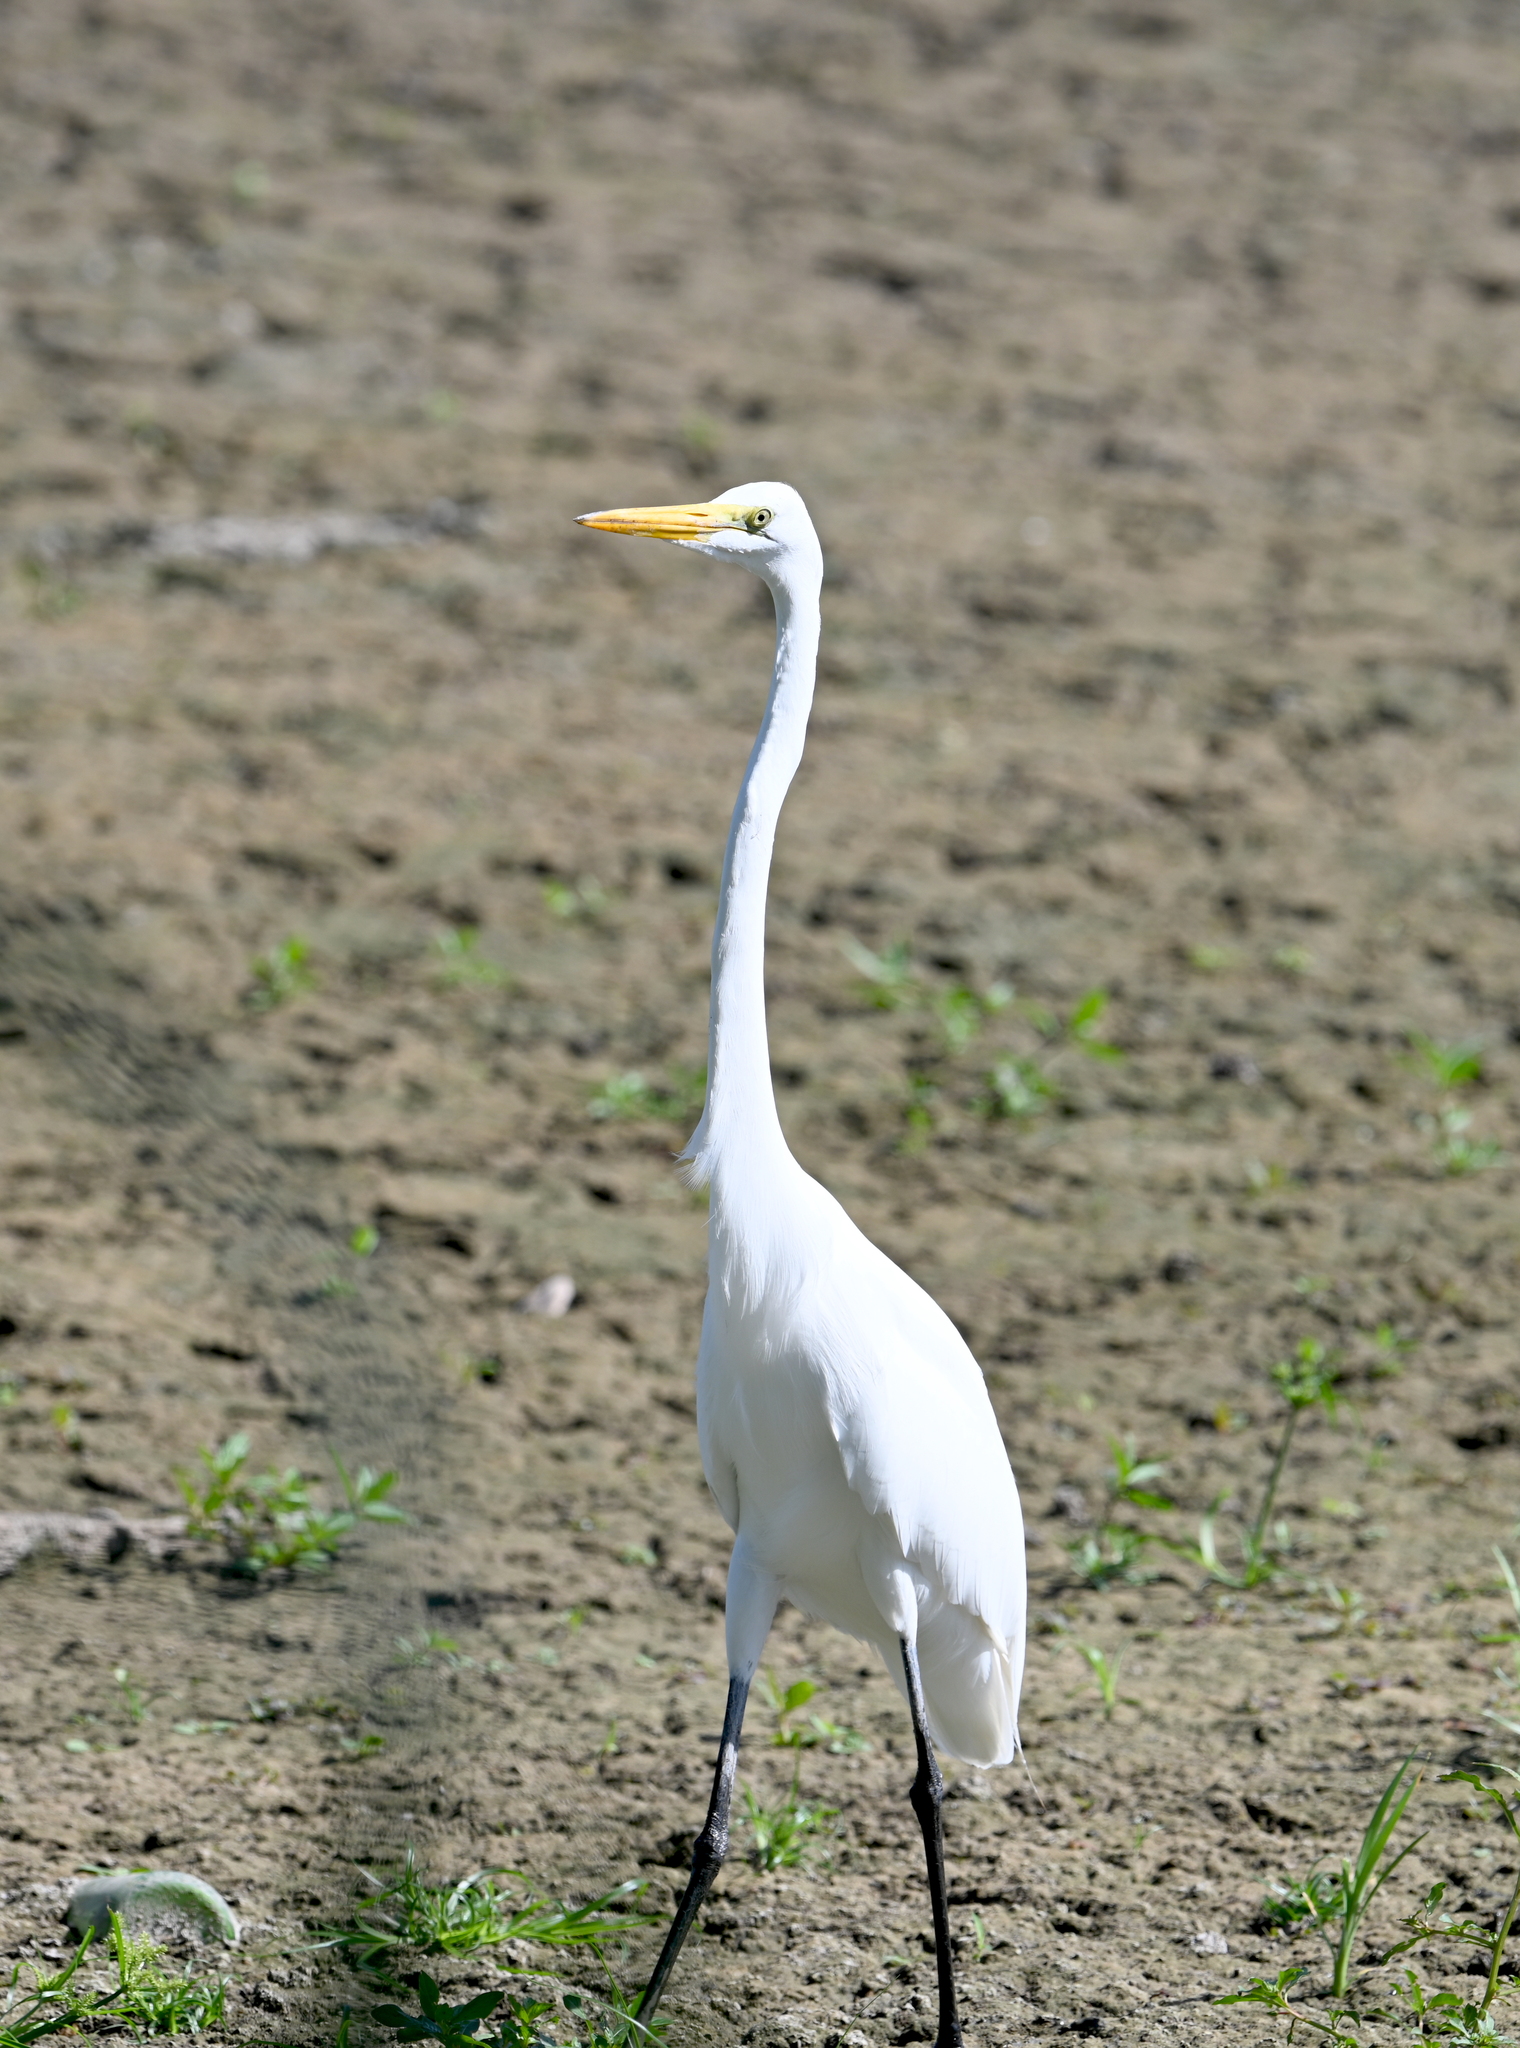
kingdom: Animalia
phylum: Chordata
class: Aves
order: Pelecaniformes
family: Ardeidae
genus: Ardea
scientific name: Ardea alba
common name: Great egret
